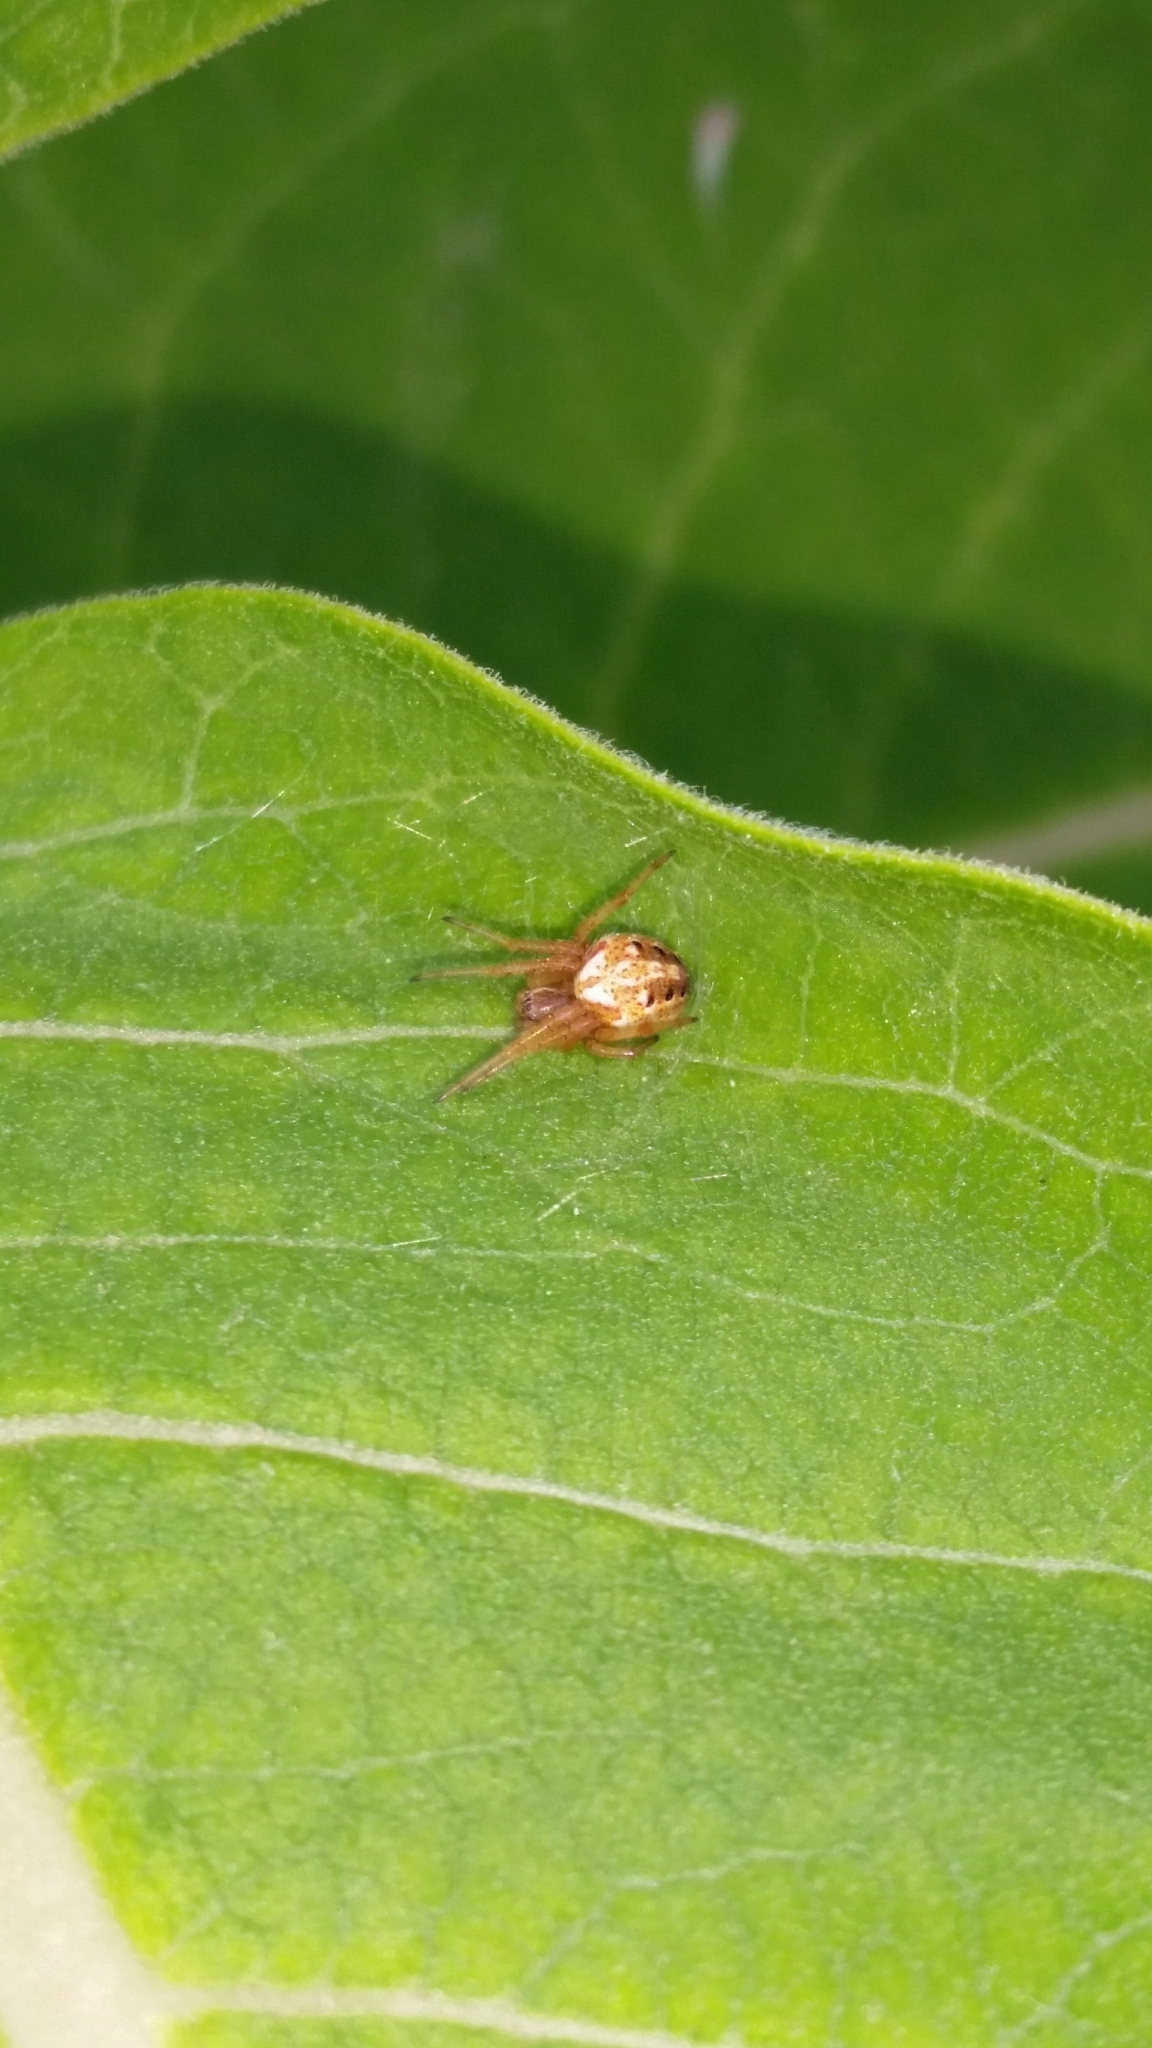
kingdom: Animalia
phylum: Arthropoda
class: Arachnida
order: Araneae
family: Araneidae
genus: Neoscona
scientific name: Neoscona arabesca
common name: Orb weavers
